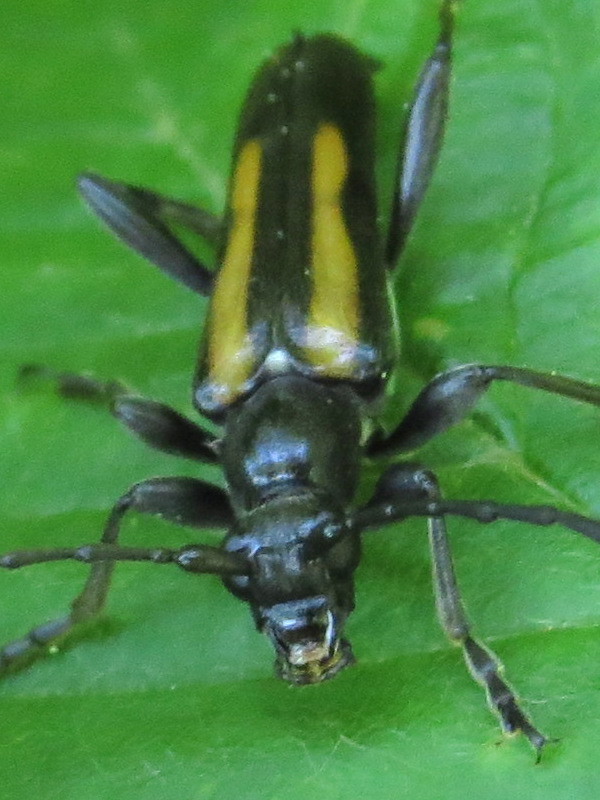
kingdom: Animalia
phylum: Arthropoda
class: Insecta
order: Coleoptera
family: Cerambycidae
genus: Strangalepta
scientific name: Strangalepta abbreviata
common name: Strangalepta flower longhorn beetle
